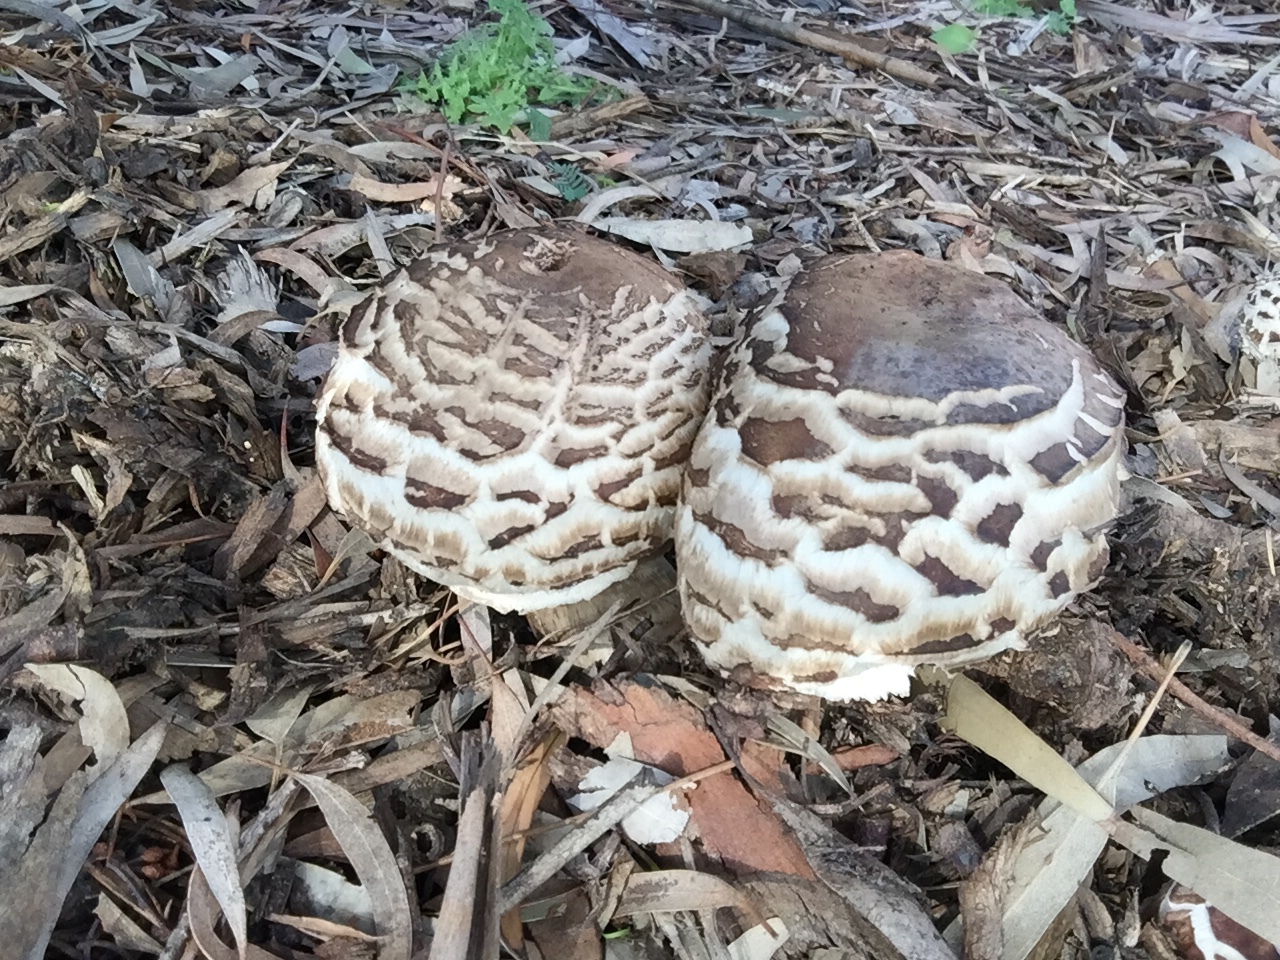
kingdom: Fungi
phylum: Basidiomycota
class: Agaricomycetes
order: Agaricales
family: Agaricaceae
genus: Chlorophyllum
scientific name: Chlorophyllum brunneum
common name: Brown parasol
